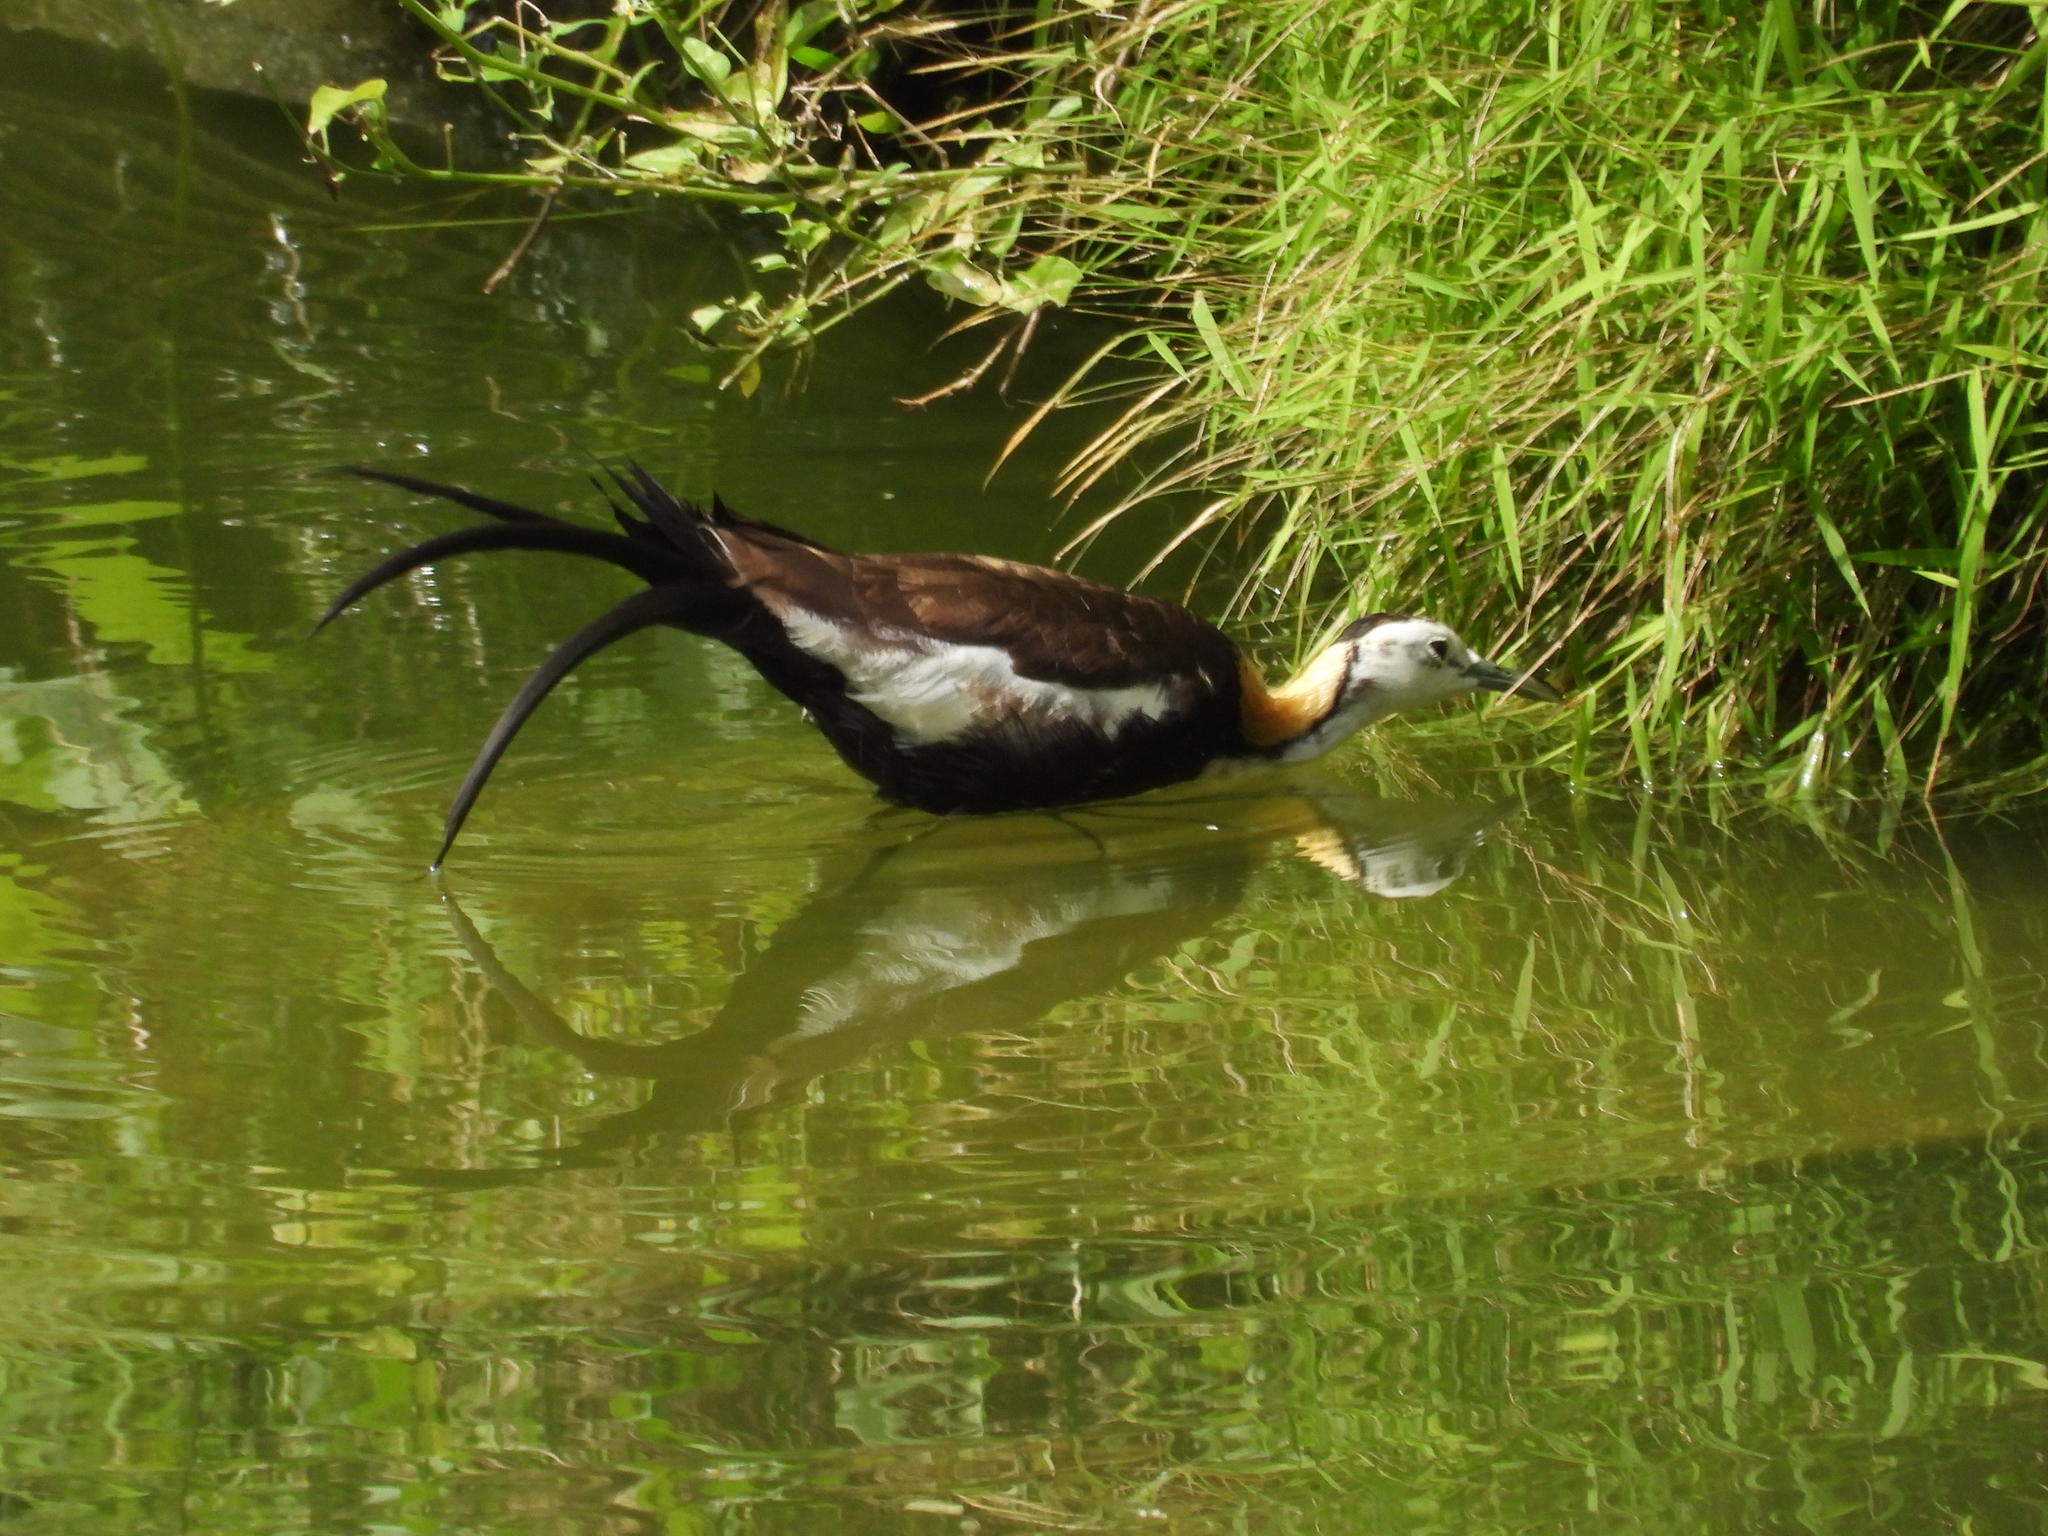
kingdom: Animalia
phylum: Chordata
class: Aves
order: Charadriiformes
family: Jacanidae
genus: Hydrophasianus
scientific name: Hydrophasianus chirurgus
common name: Pheasant-tailed jacana
